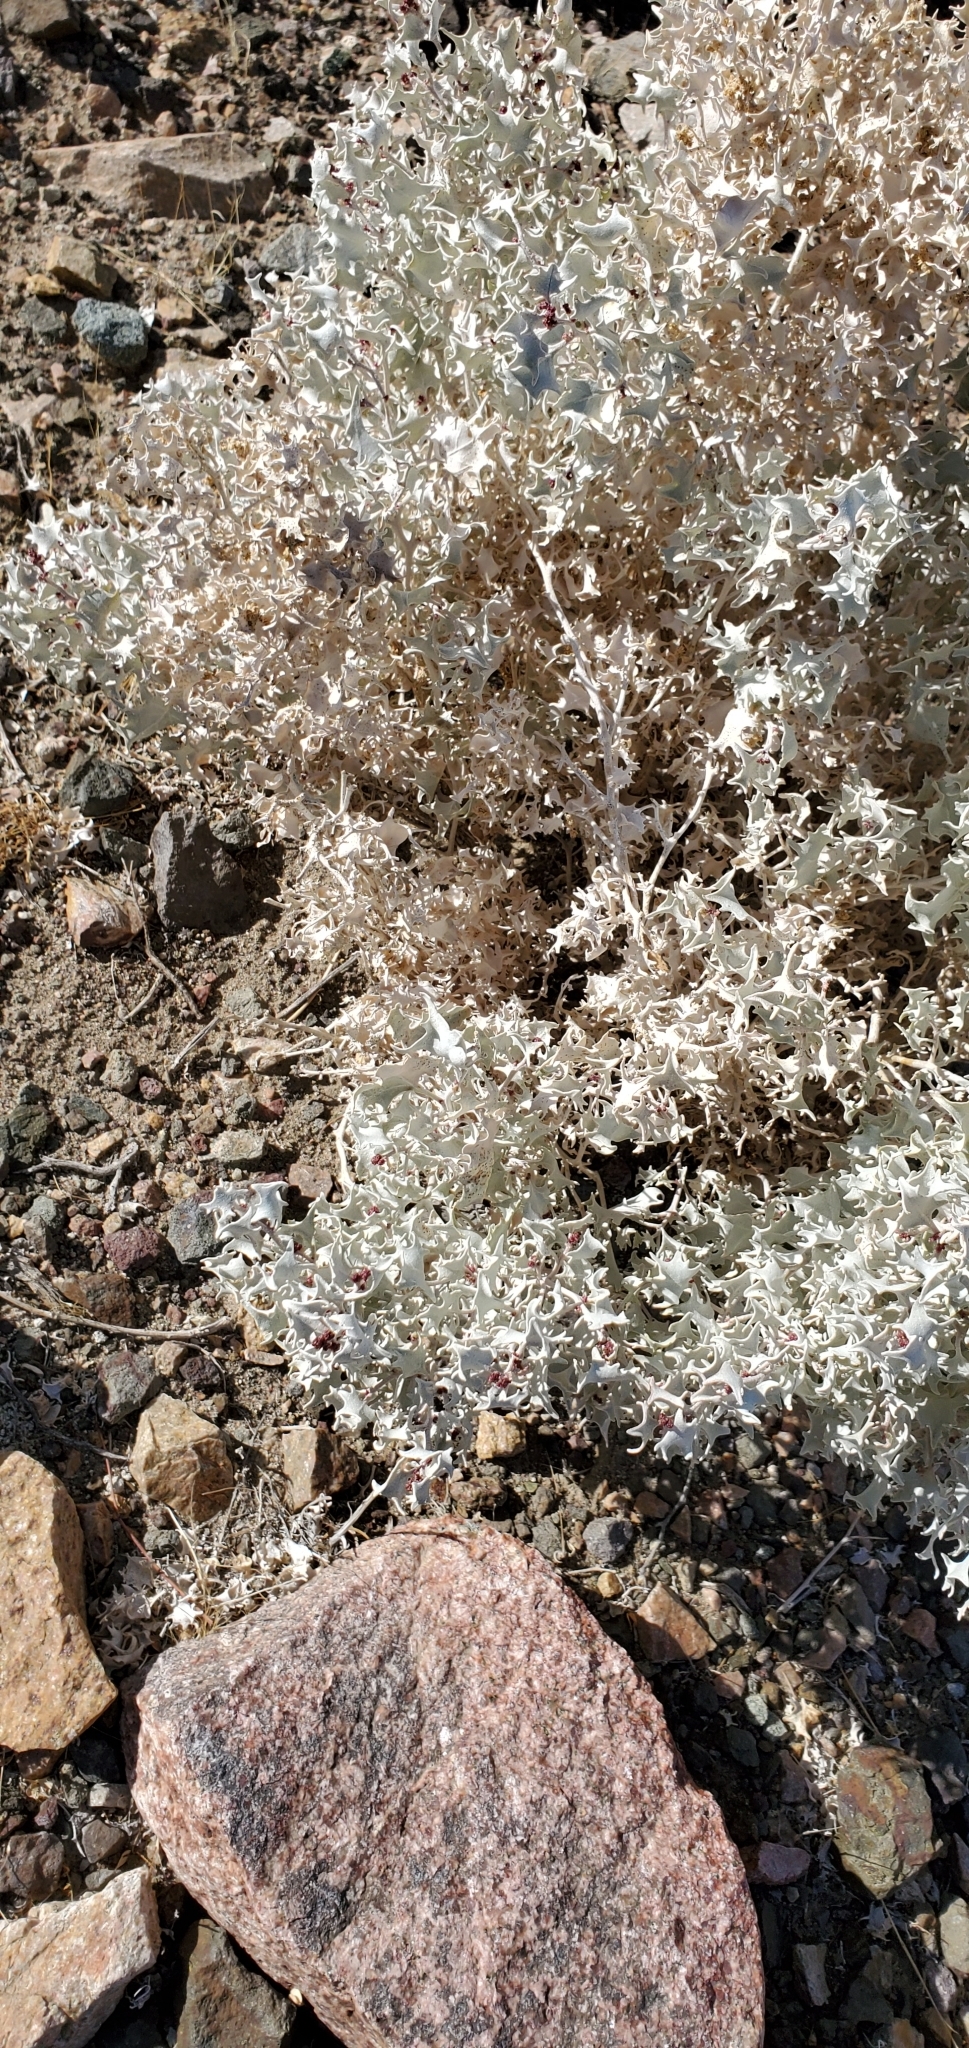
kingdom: Plantae
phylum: Tracheophyta
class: Magnoliopsida
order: Caryophyllales
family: Amaranthaceae
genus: Atriplex
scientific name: Atriplex hymenelytra
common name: Desert-holly
